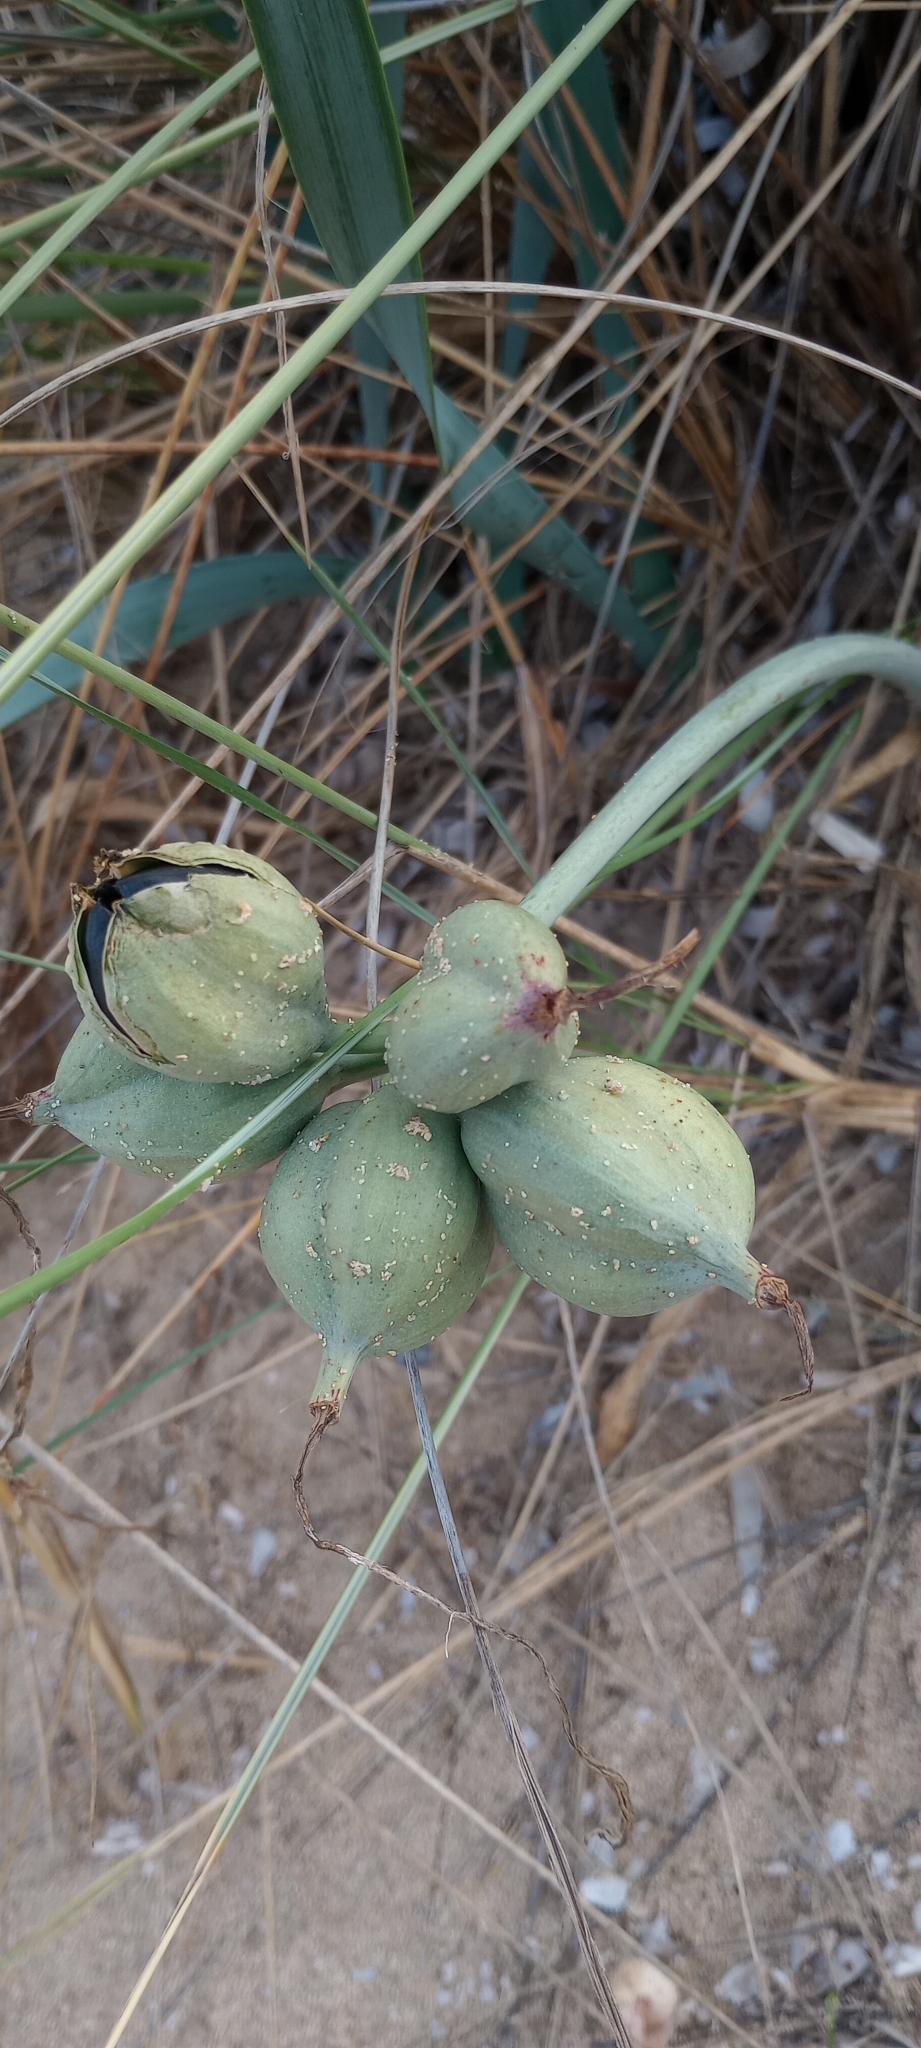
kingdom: Plantae
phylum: Tracheophyta
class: Liliopsida
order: Asparagales
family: Amaryllidaceae
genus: Pancratium
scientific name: Pancratium maritimum
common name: Sea-daffodil
